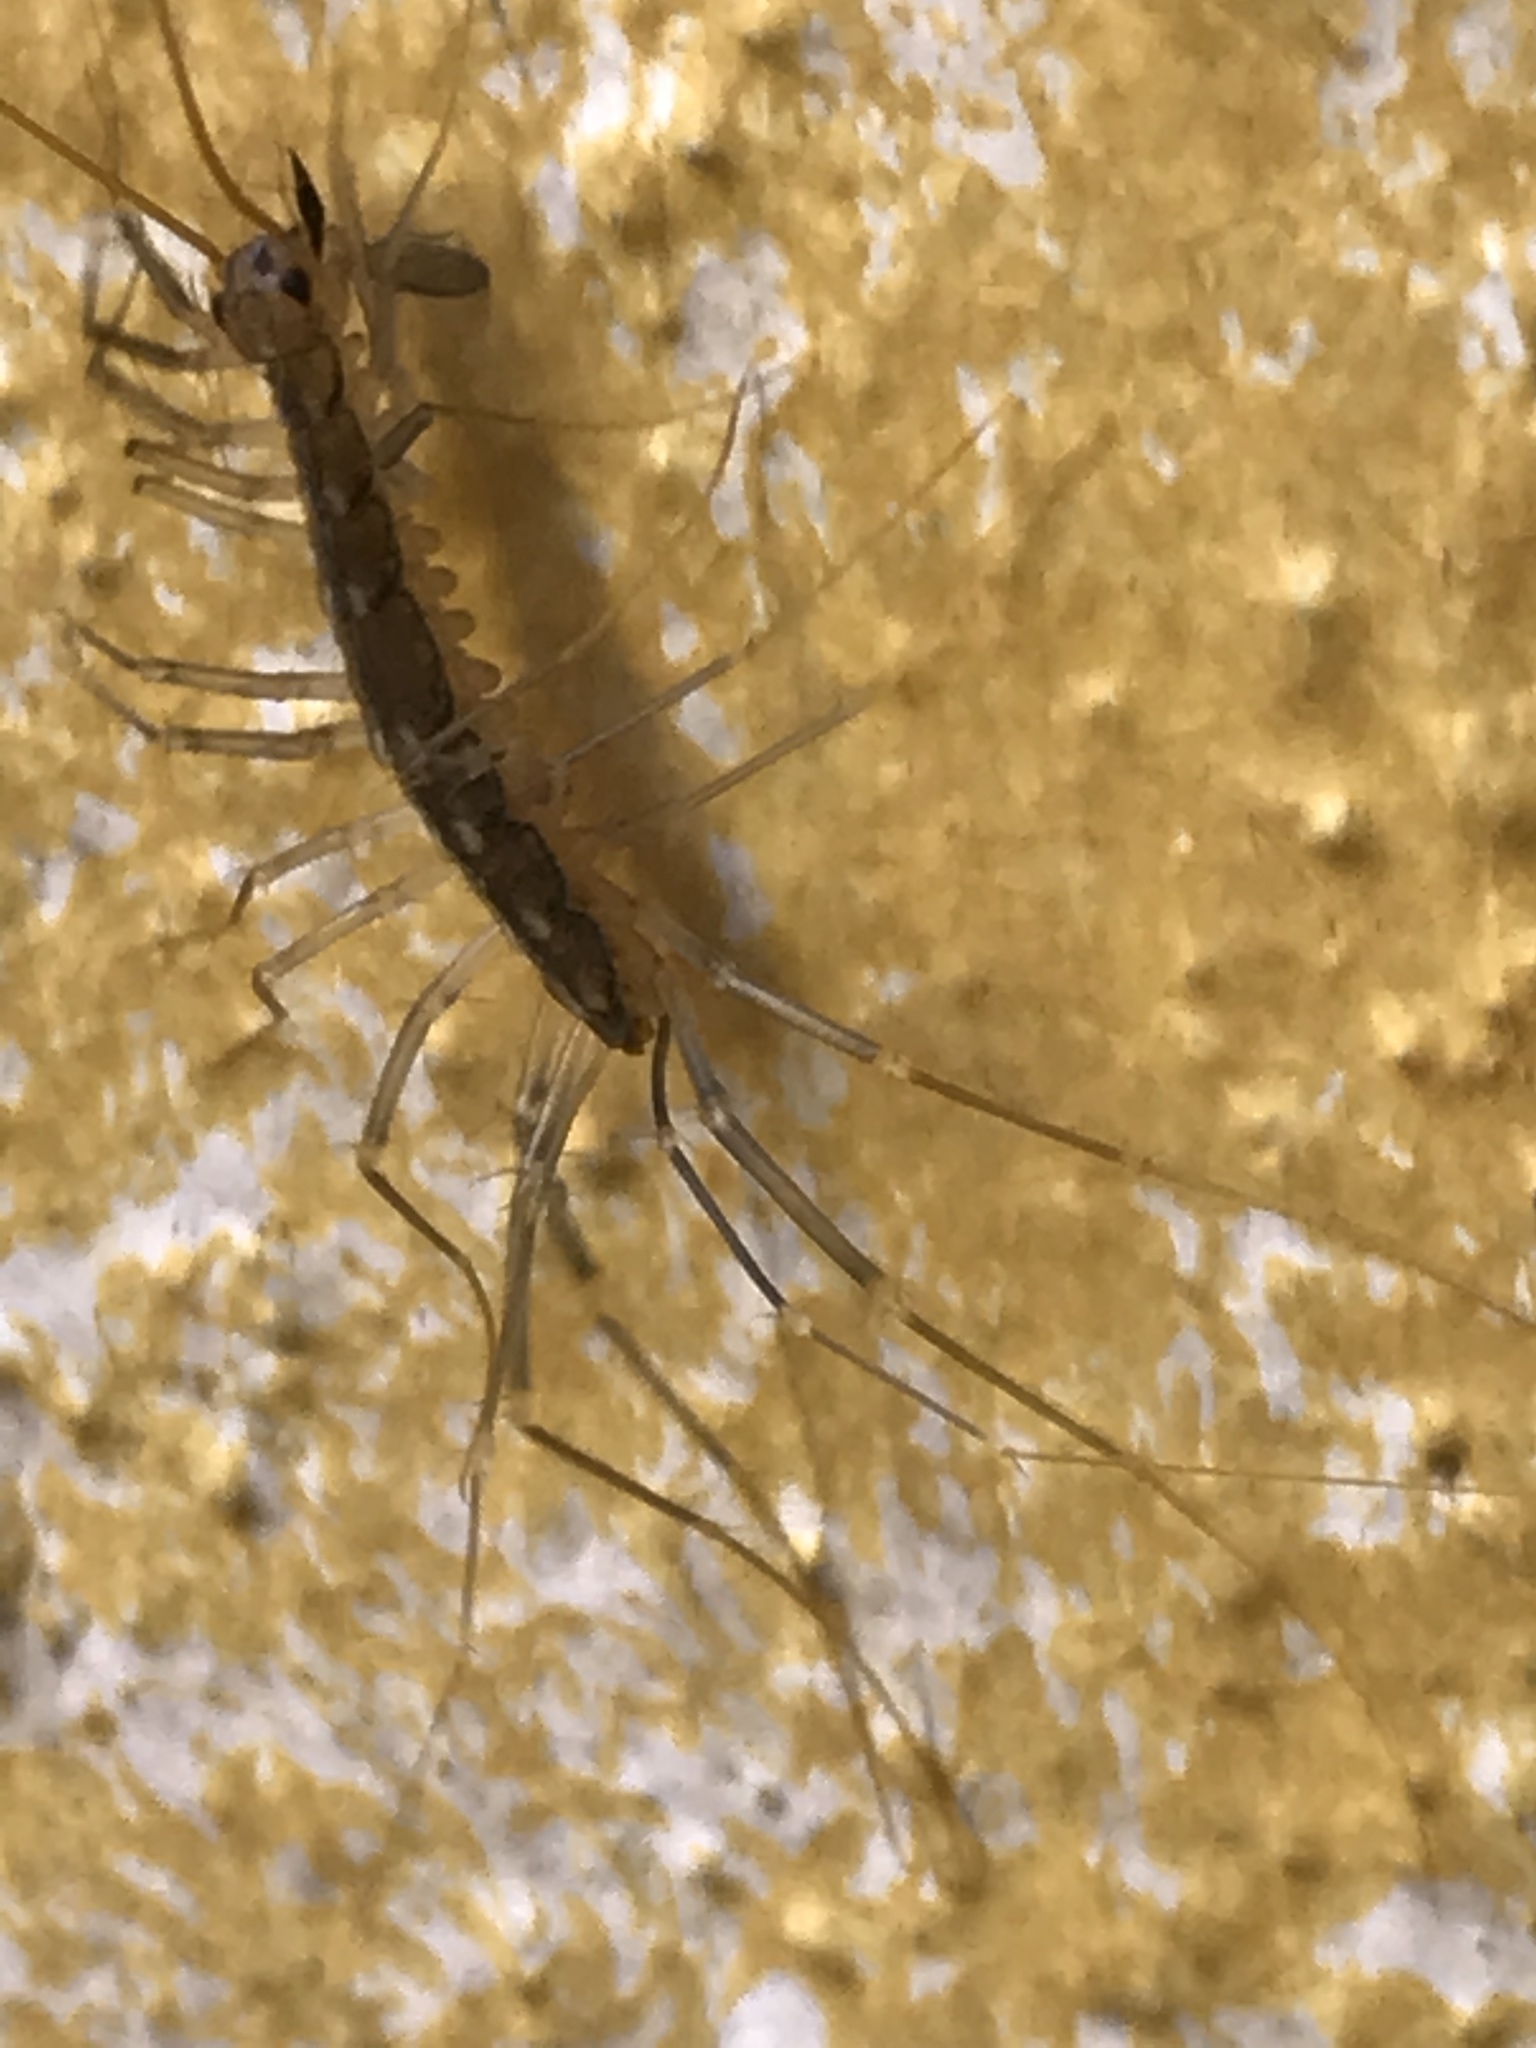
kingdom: Animalia
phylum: Arthropoda
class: Chilopoda
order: Scutigeromorpha
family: Scutigeridae
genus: Scutigera
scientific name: Scutigera coleoptrata
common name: House centipede
